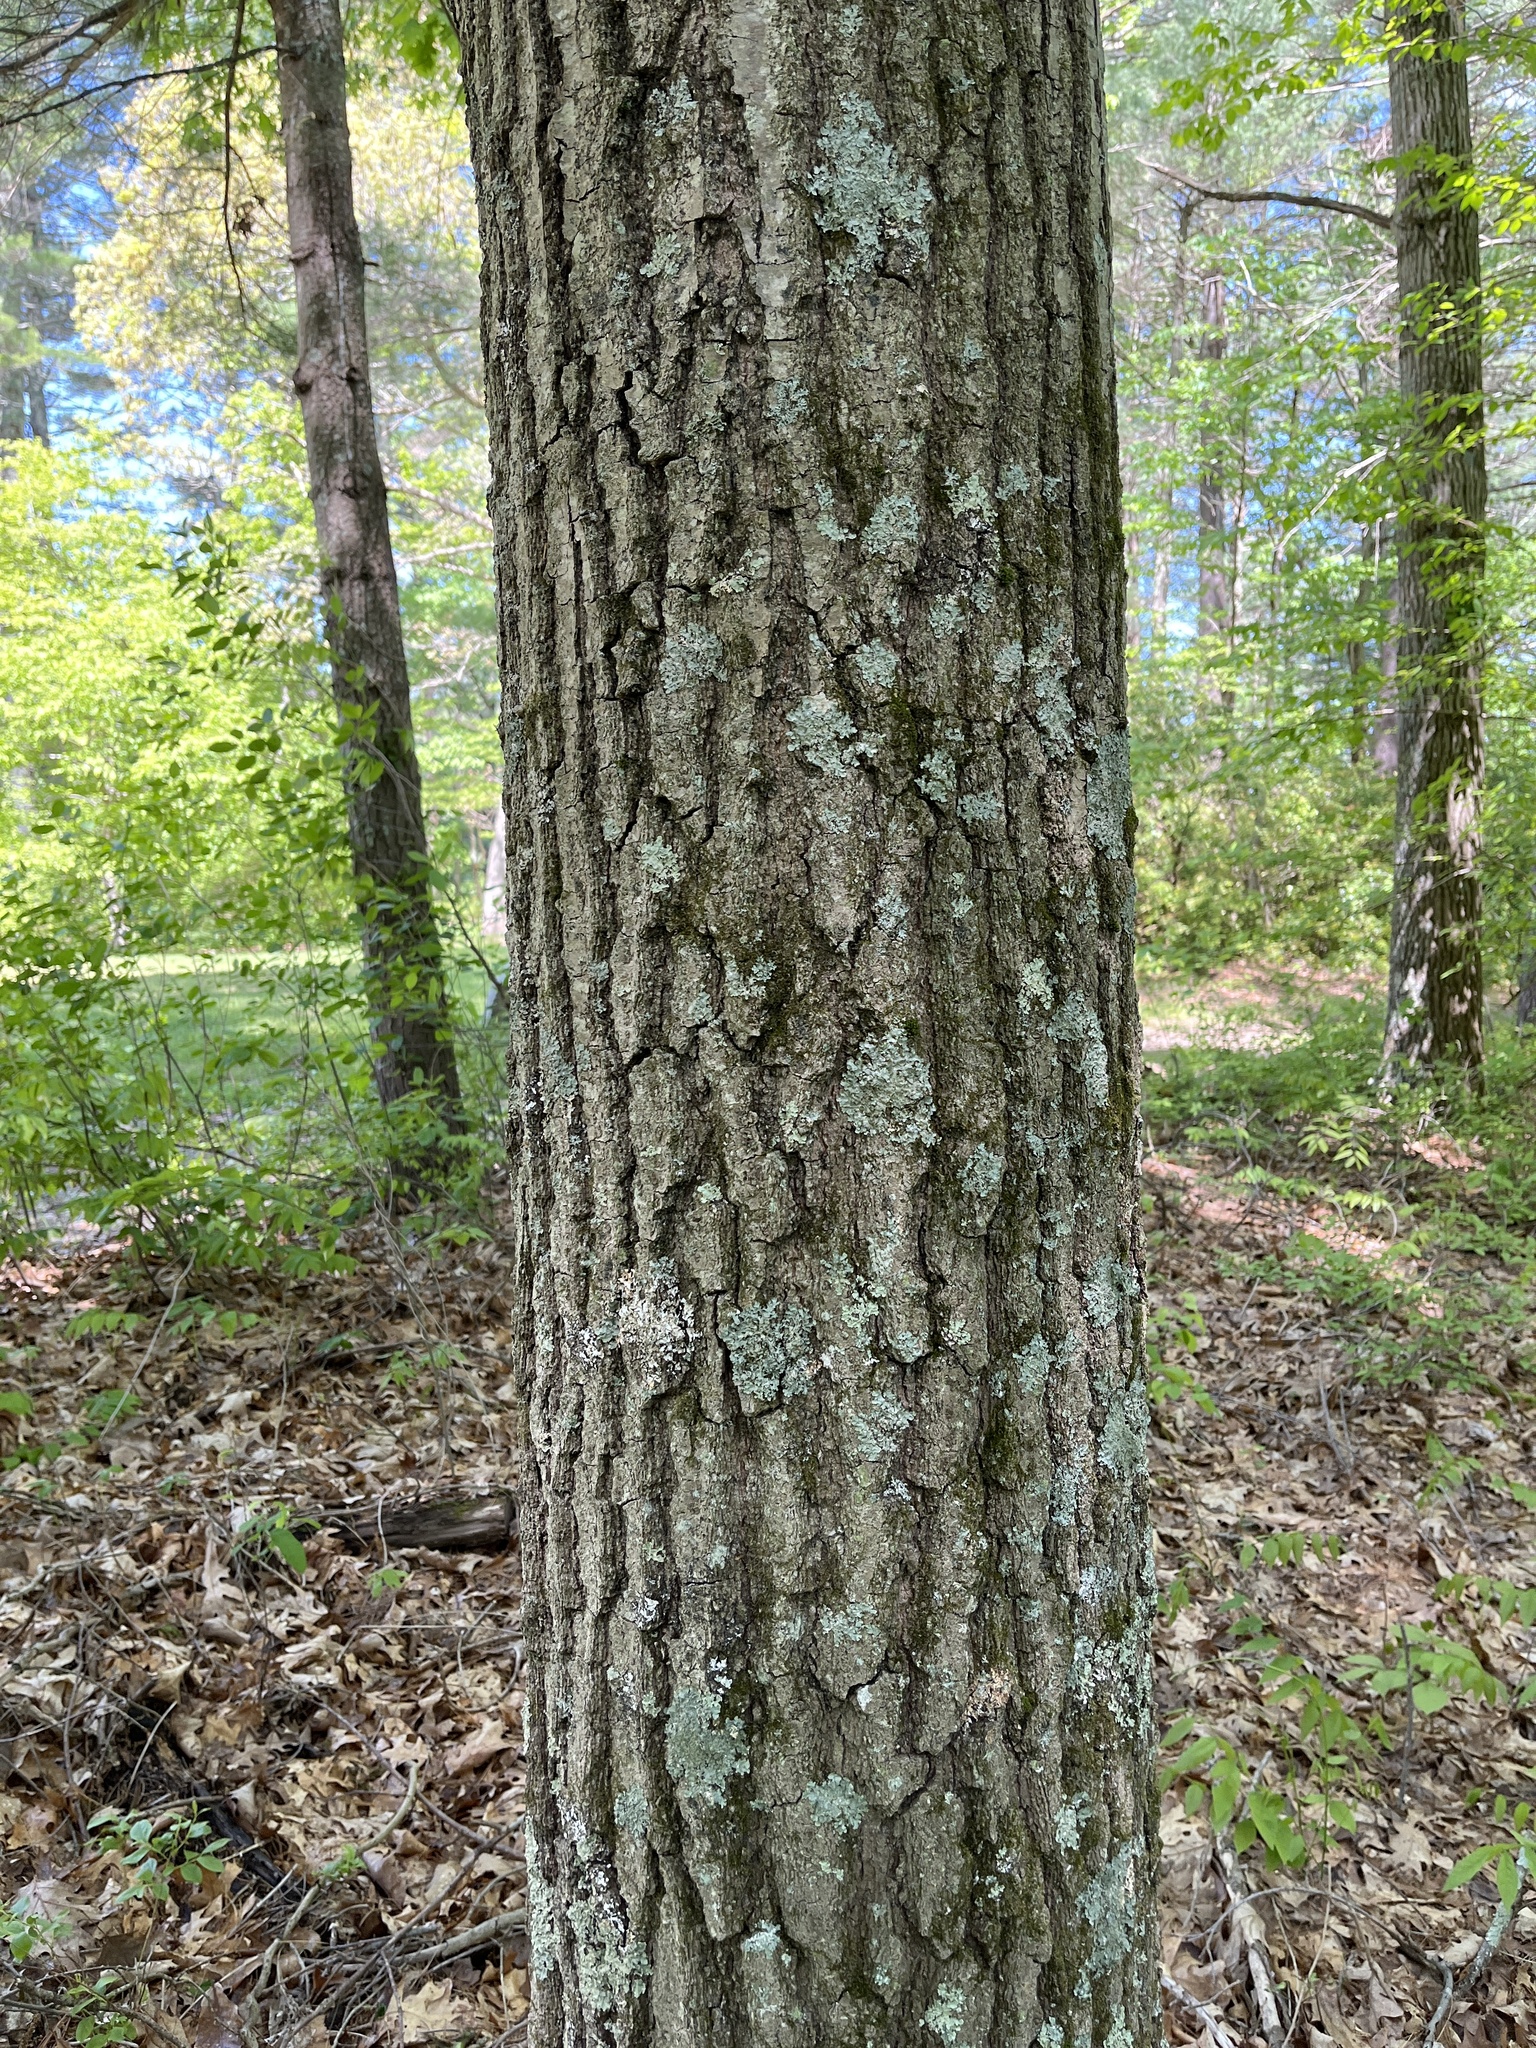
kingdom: Plantae
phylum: Tracheophyta
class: Magnoliopsida
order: Fagales
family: Fagaceae
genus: Quercus
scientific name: Quercus palustris
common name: Pin oak
